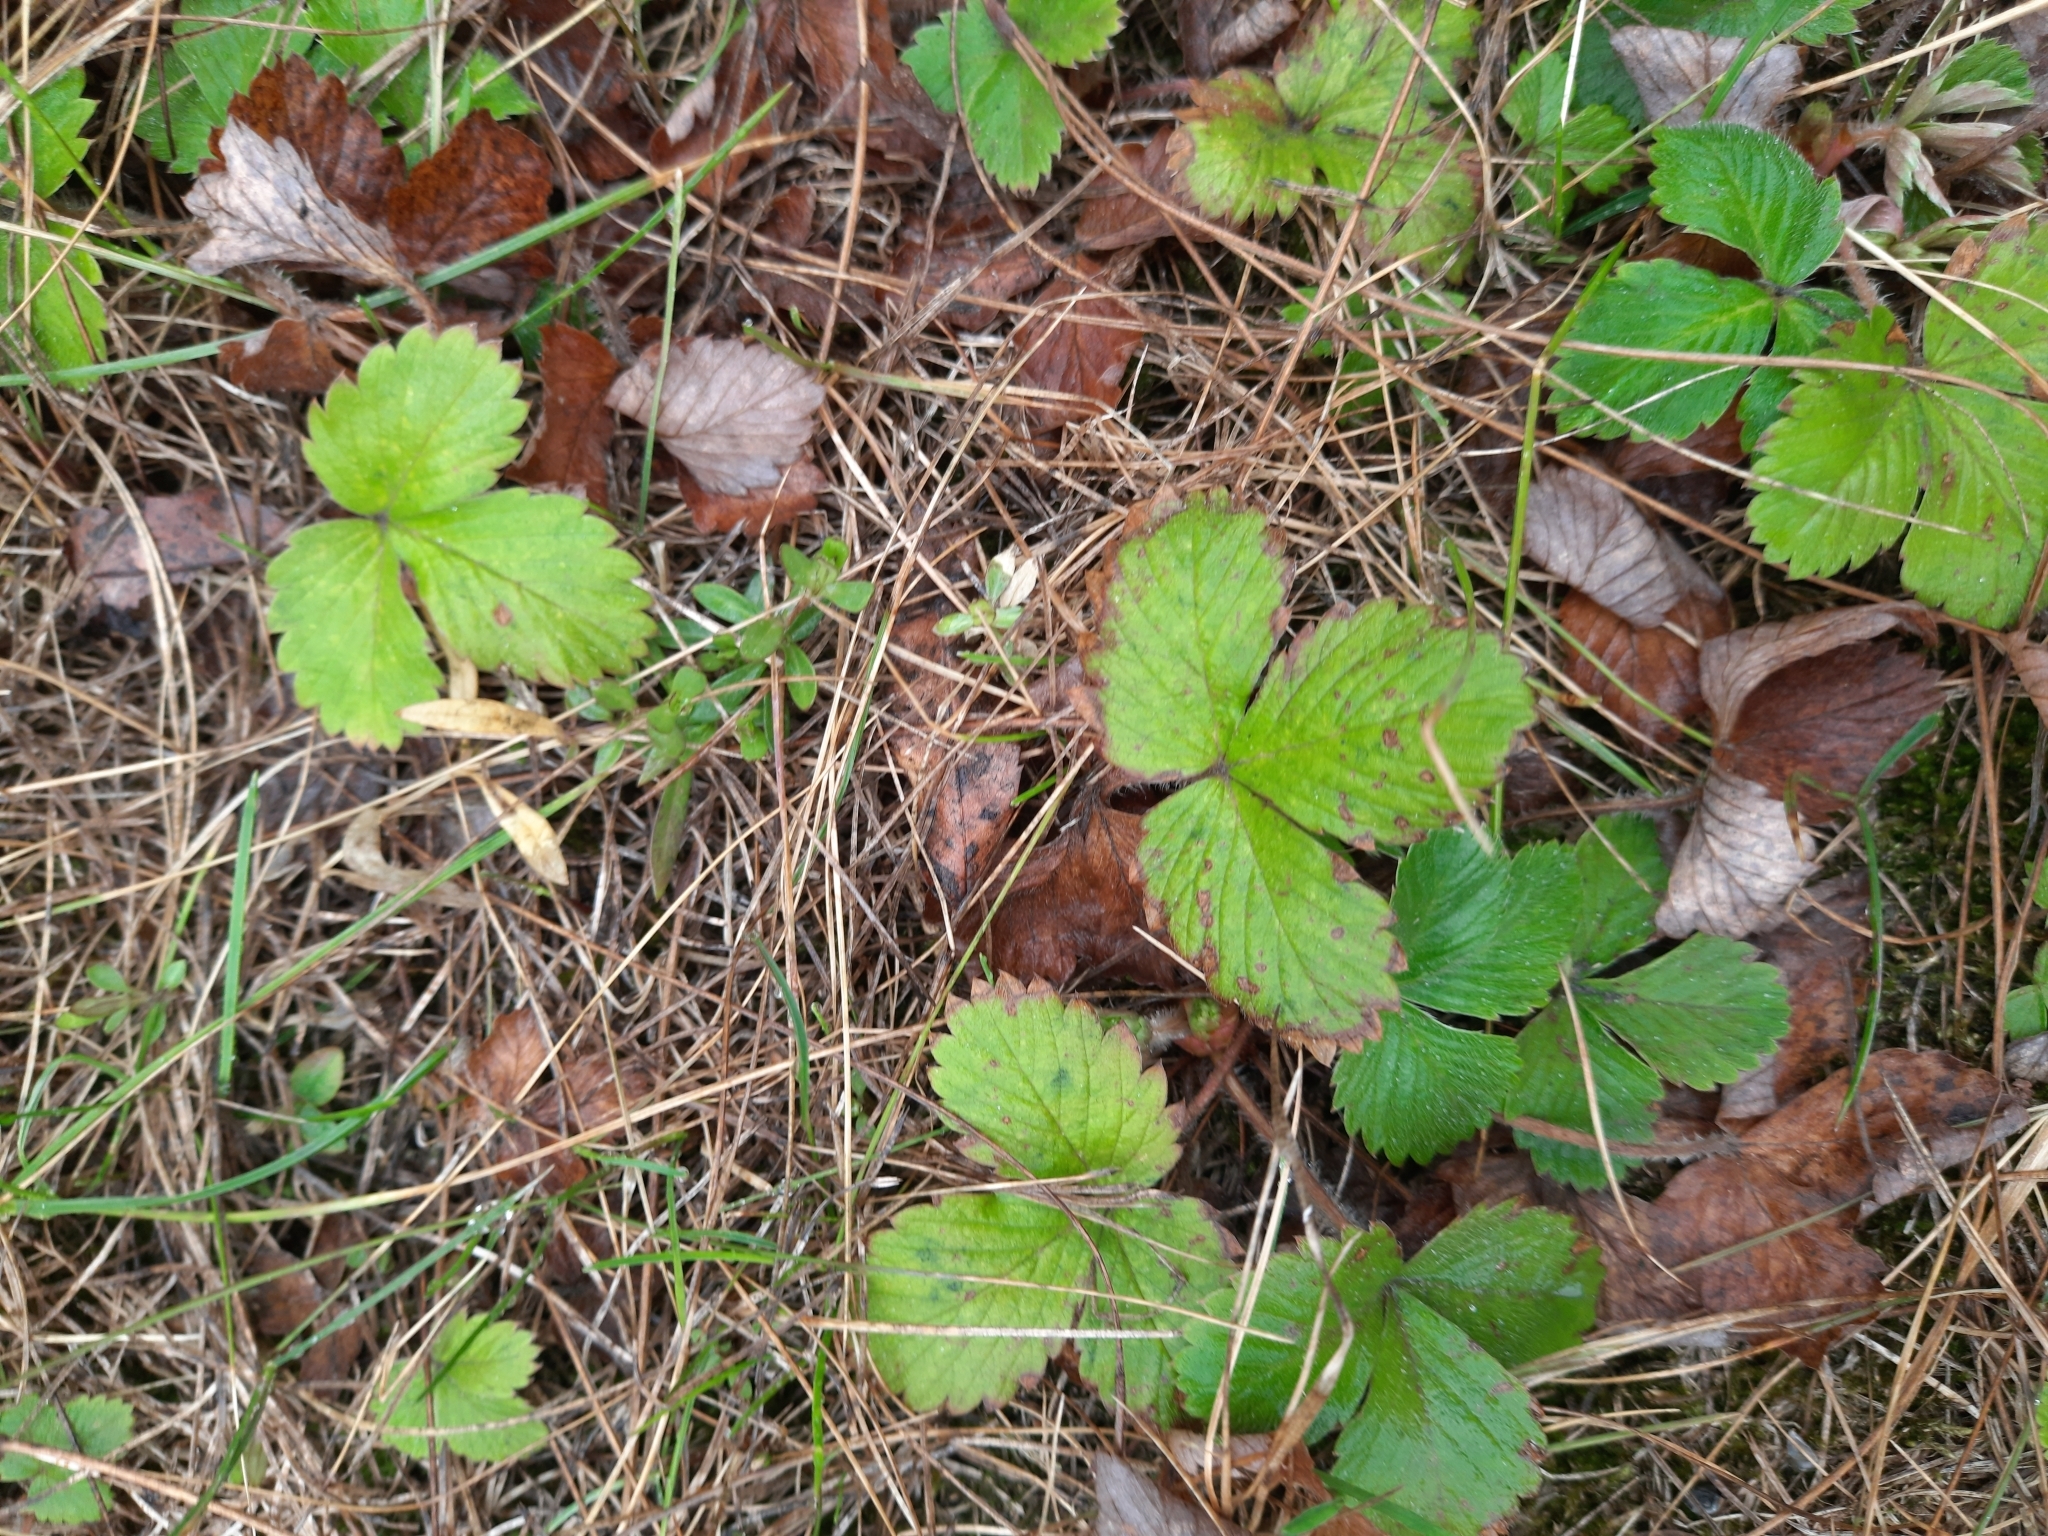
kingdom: Plantae
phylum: Tracheophyta
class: Magnoliopsida
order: Rosales
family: Rosaceae
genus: Fragaria
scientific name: Fragaria vesca
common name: Wild strawberry
